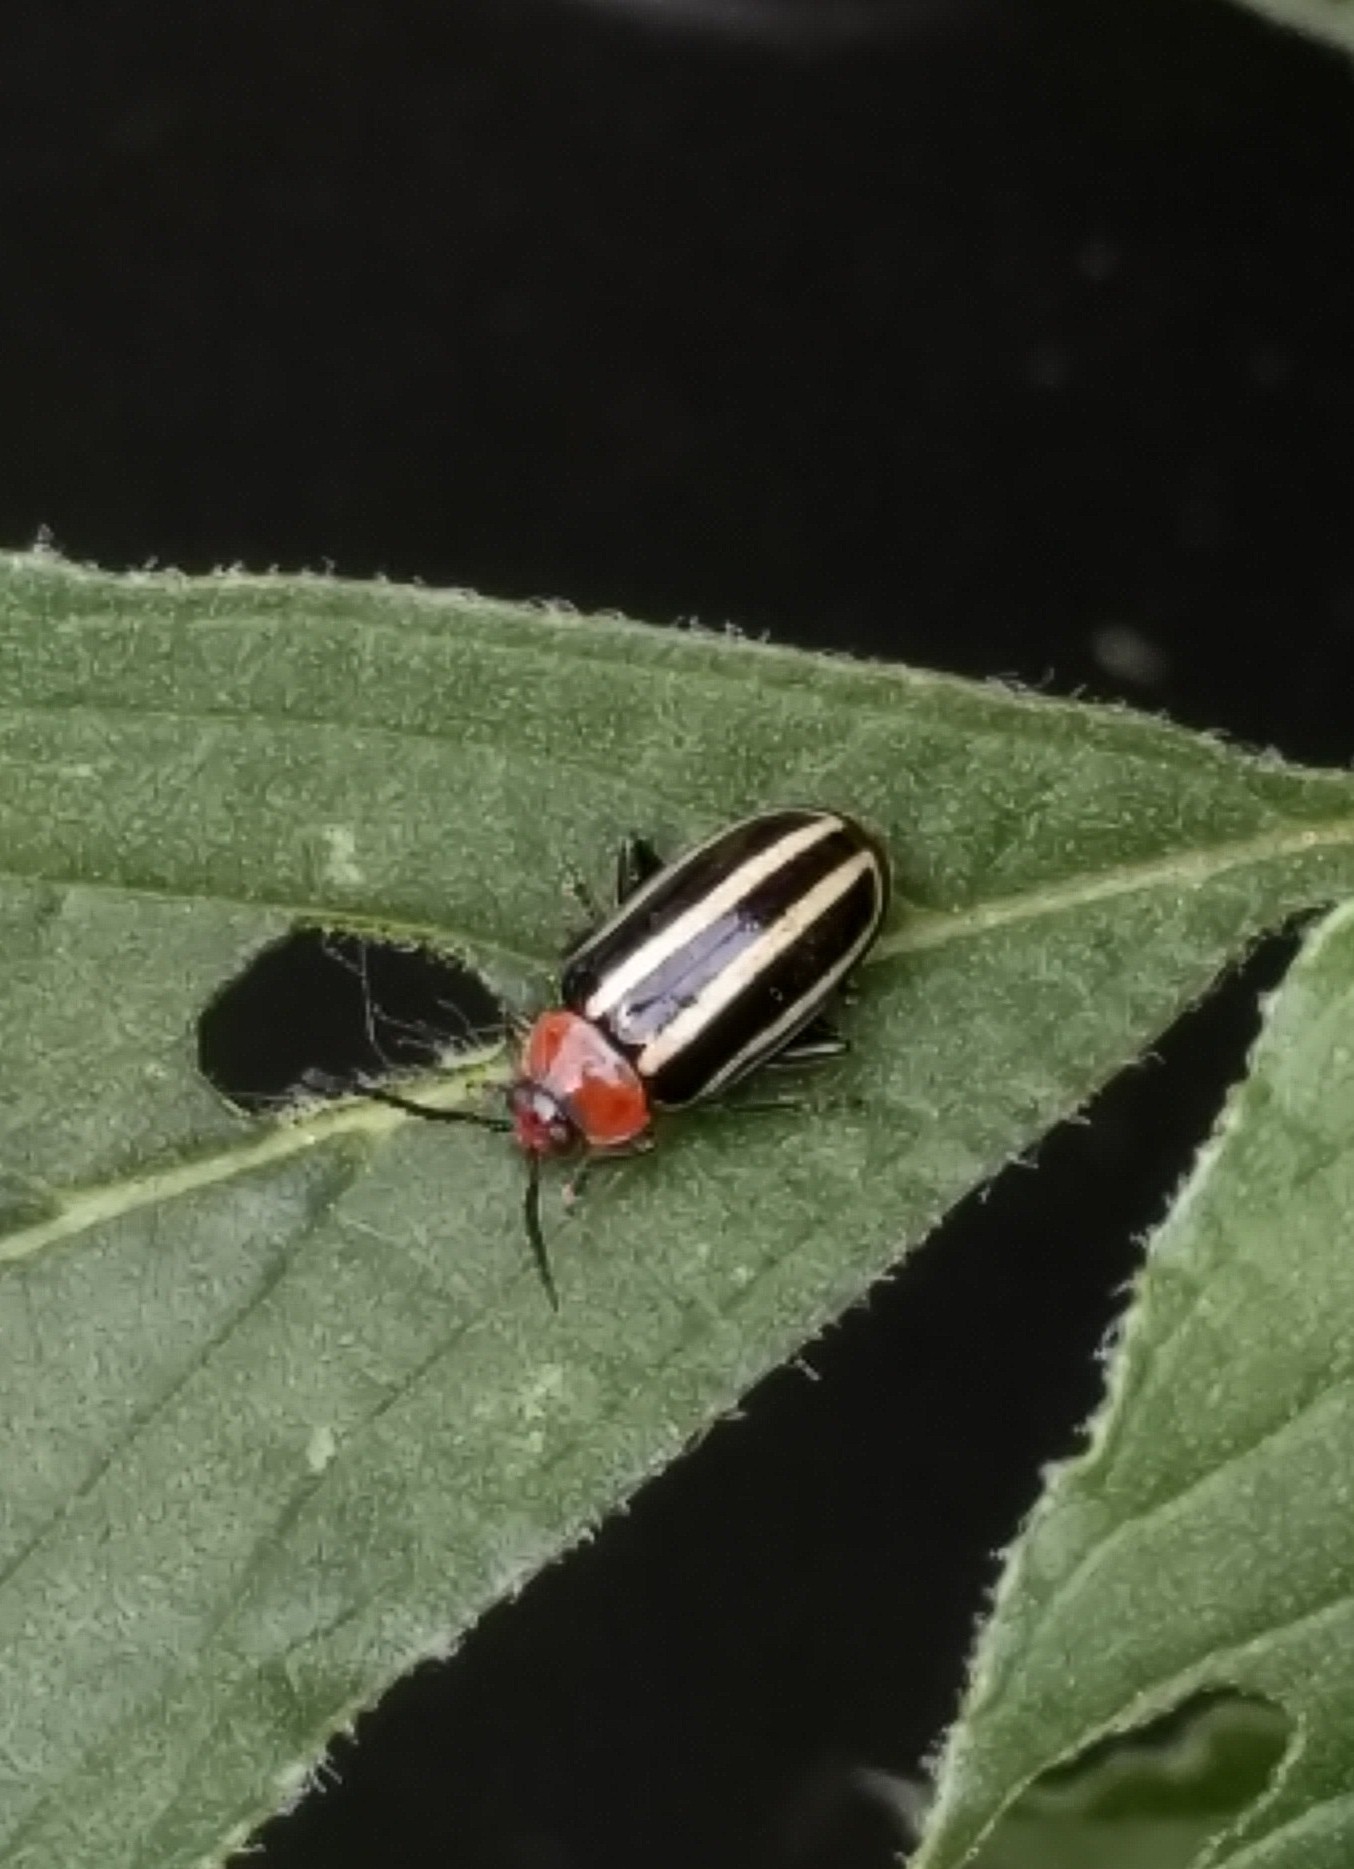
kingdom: Animalia
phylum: Arthropoda
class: Insecta
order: Coleoptera
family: Chrysomelidae
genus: Disonycha
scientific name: Disonycha glabrata
